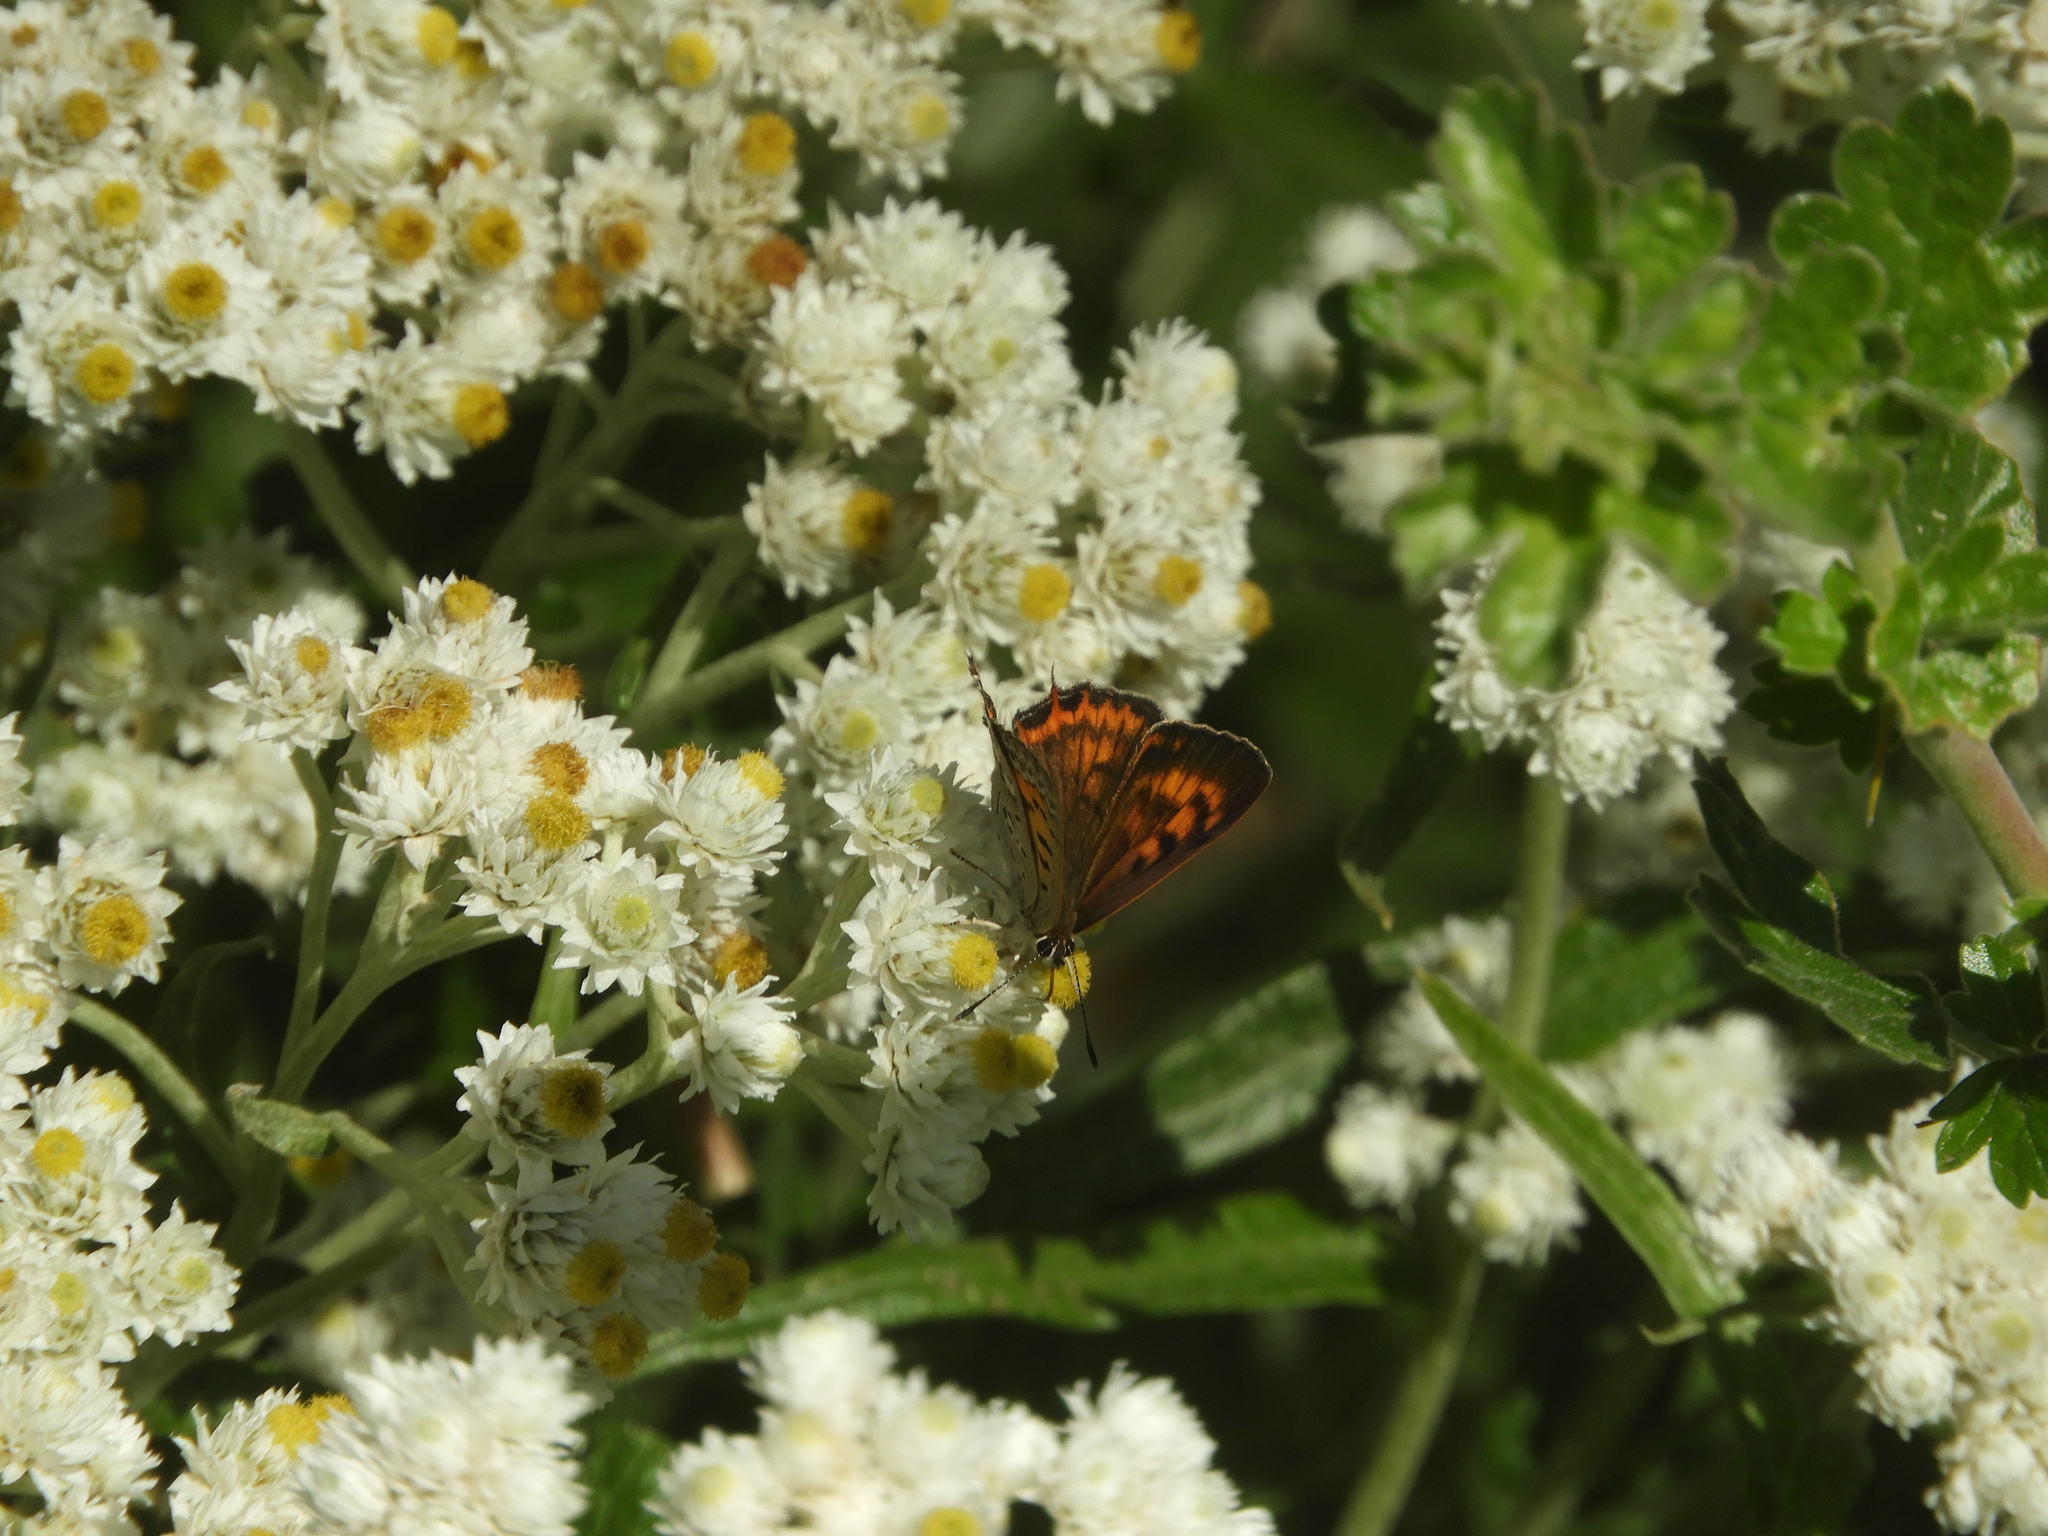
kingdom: Animalia
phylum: Arthropoda
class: Insecta
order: Lepidoptera
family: Lycaenidae
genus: Tharsalea
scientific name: Tharsalea arota
